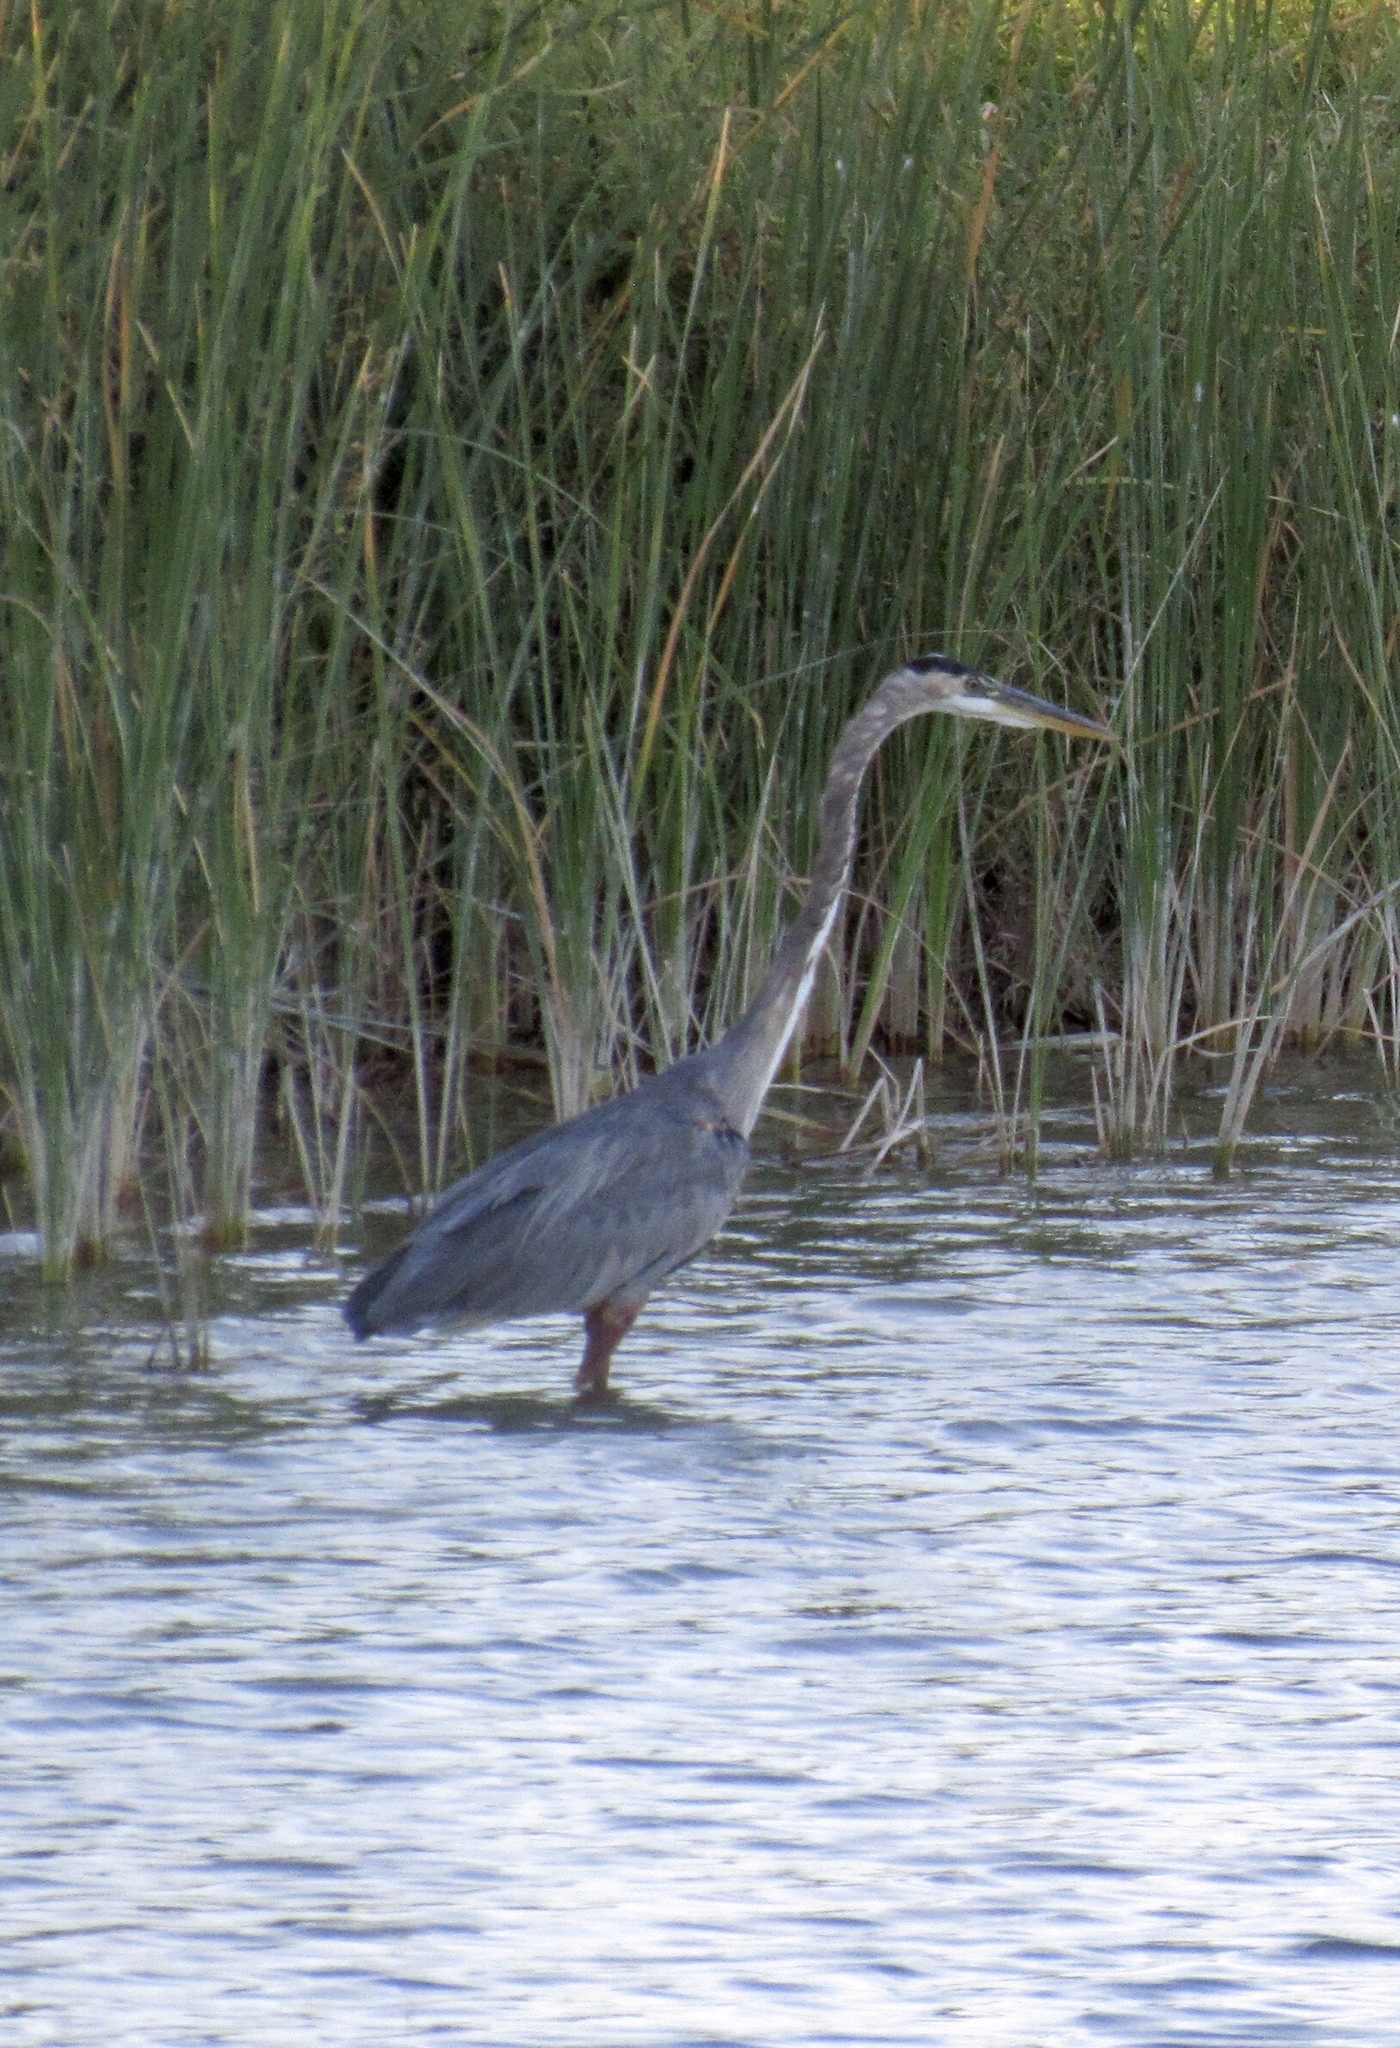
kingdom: Animalia
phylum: Chordata
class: Aves
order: Pelecaniformes
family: Ardeidae
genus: Ardea
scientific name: Ardea herodias
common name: Great blue heron
